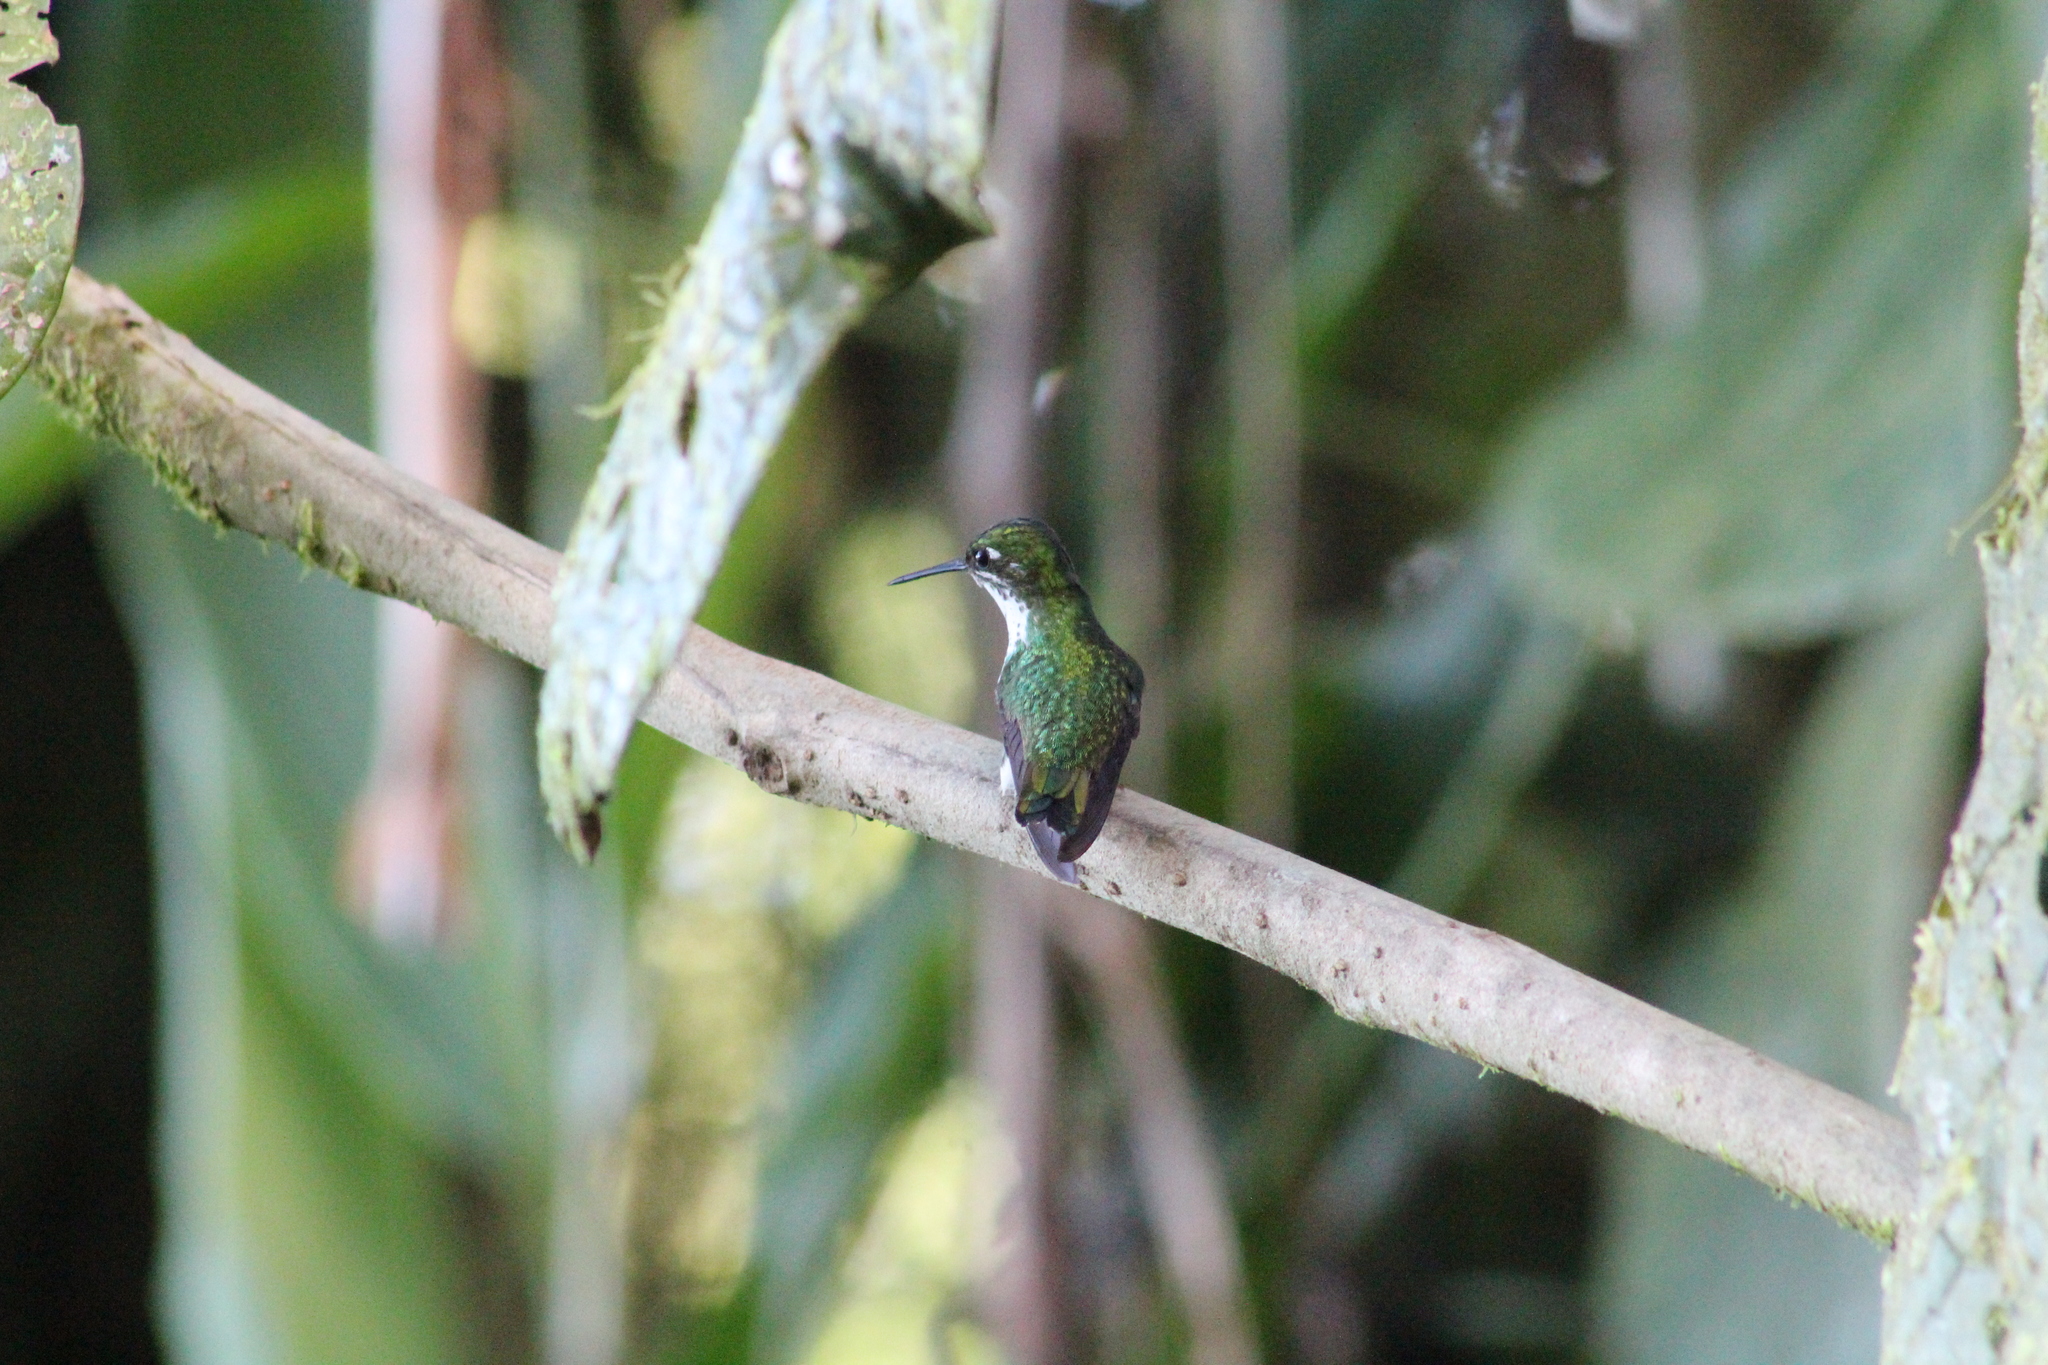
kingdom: Animalia
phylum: Chordata
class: Aves
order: Apodiformes
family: Trochilidae
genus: Ocreatus
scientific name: Ocreatus underwoodii
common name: Booted racket-tail
